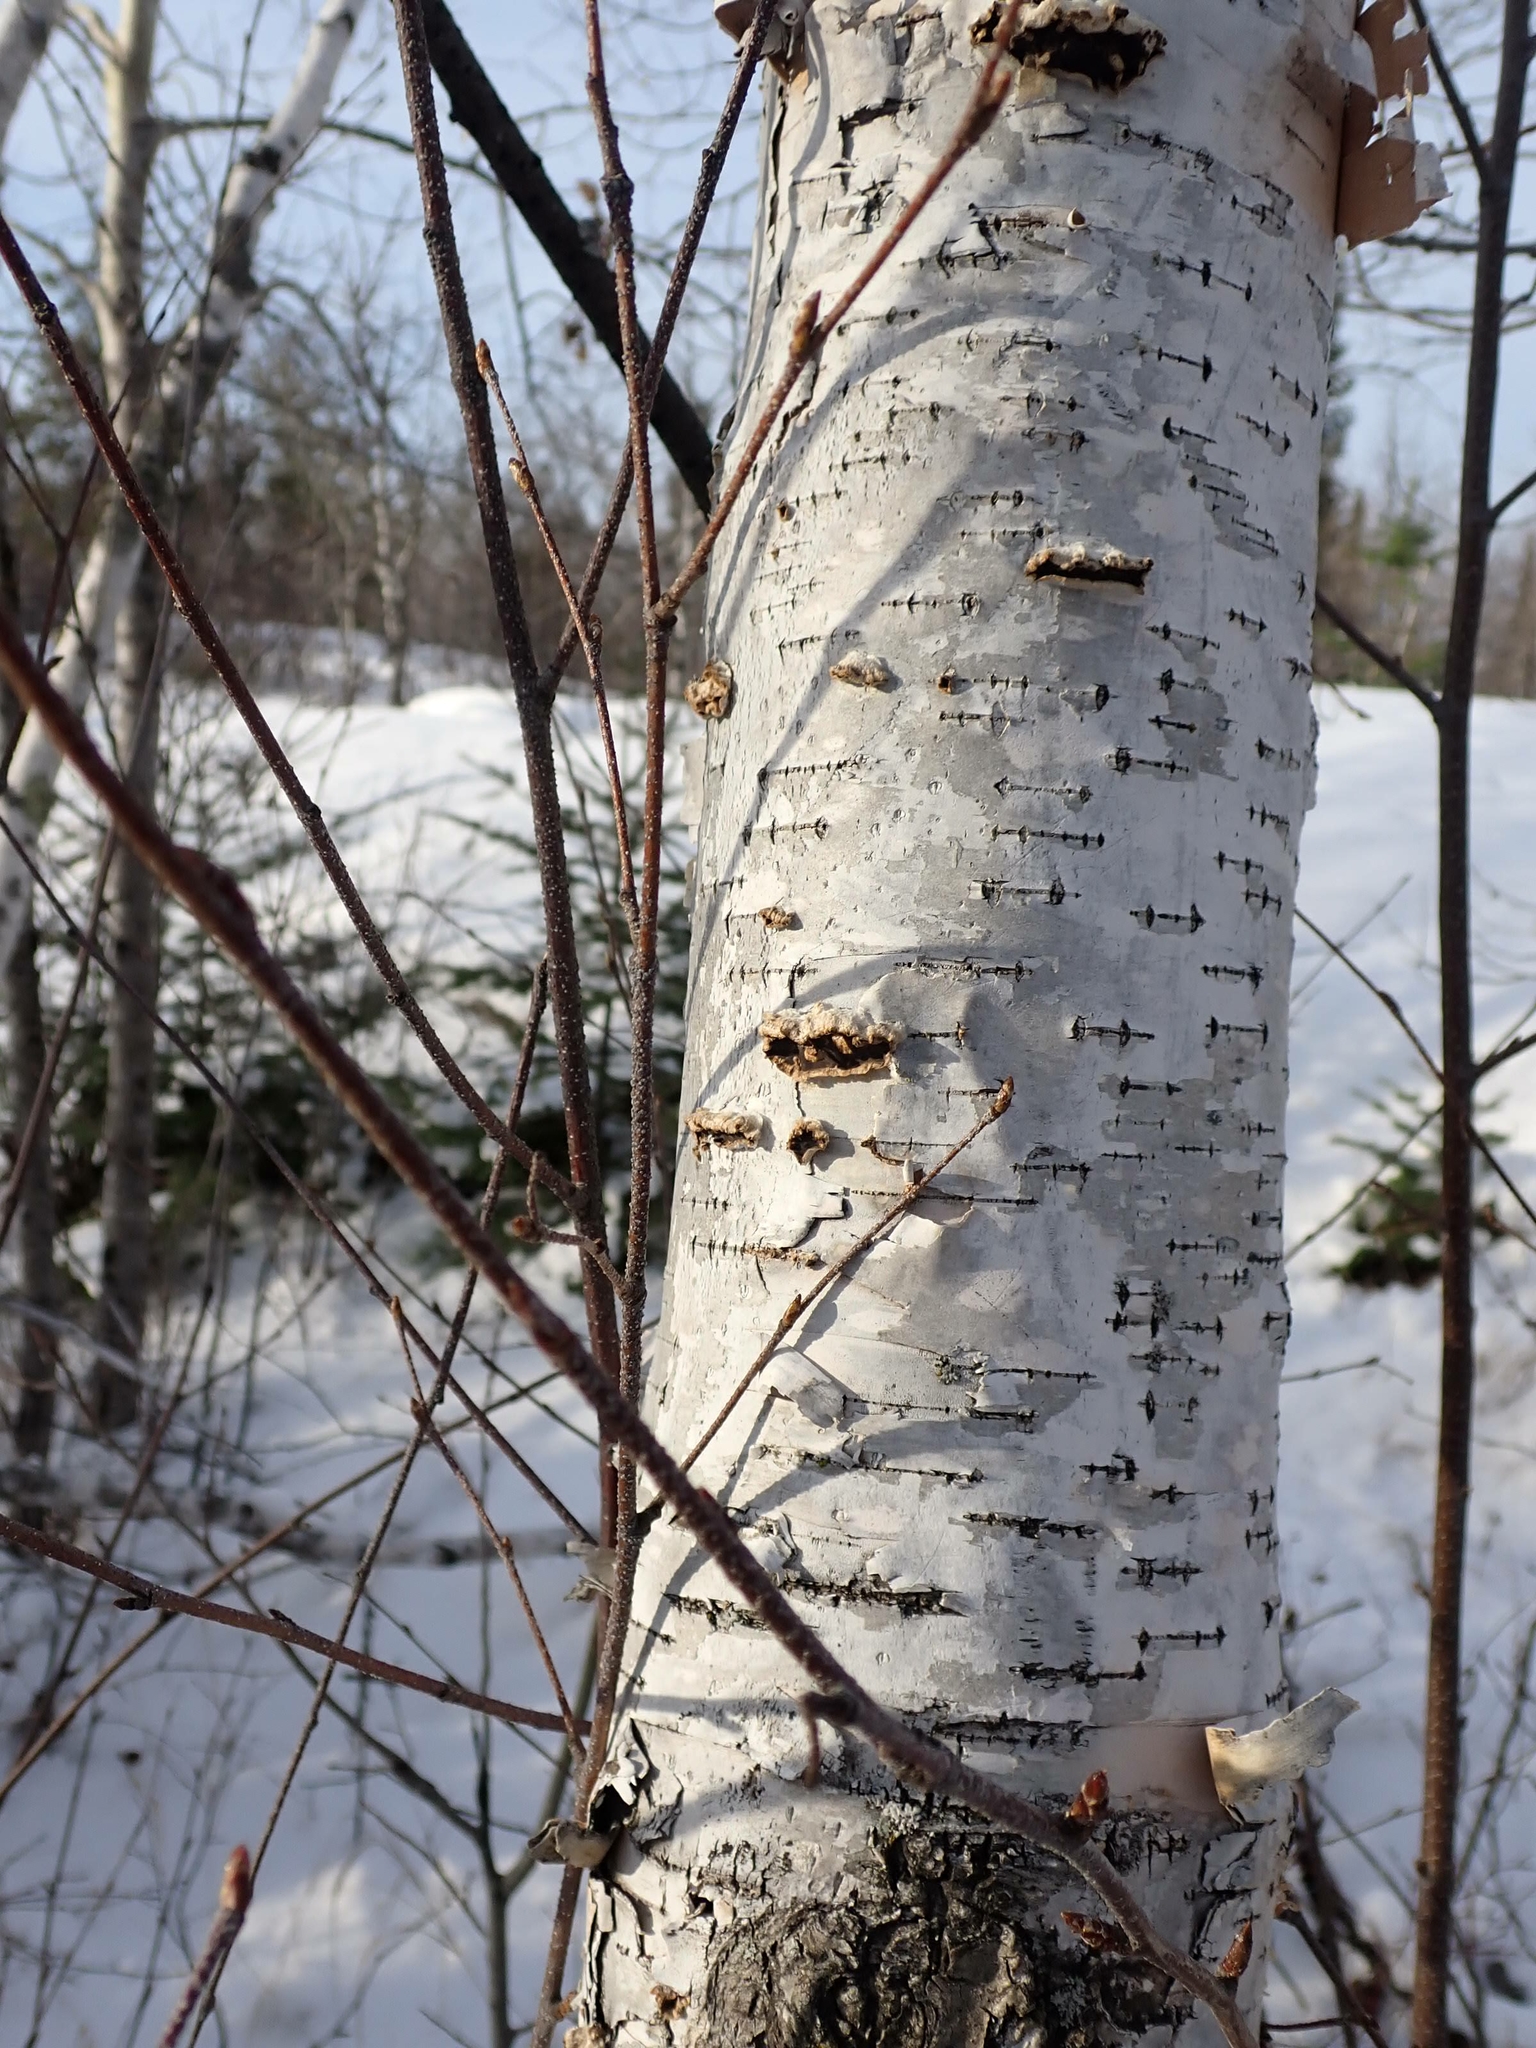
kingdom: Plantae
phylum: Tracheophyta
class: Magnoliopsida
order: Fagales
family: Betulaceae
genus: Betula
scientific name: Betula papyrifera
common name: Paper birch
